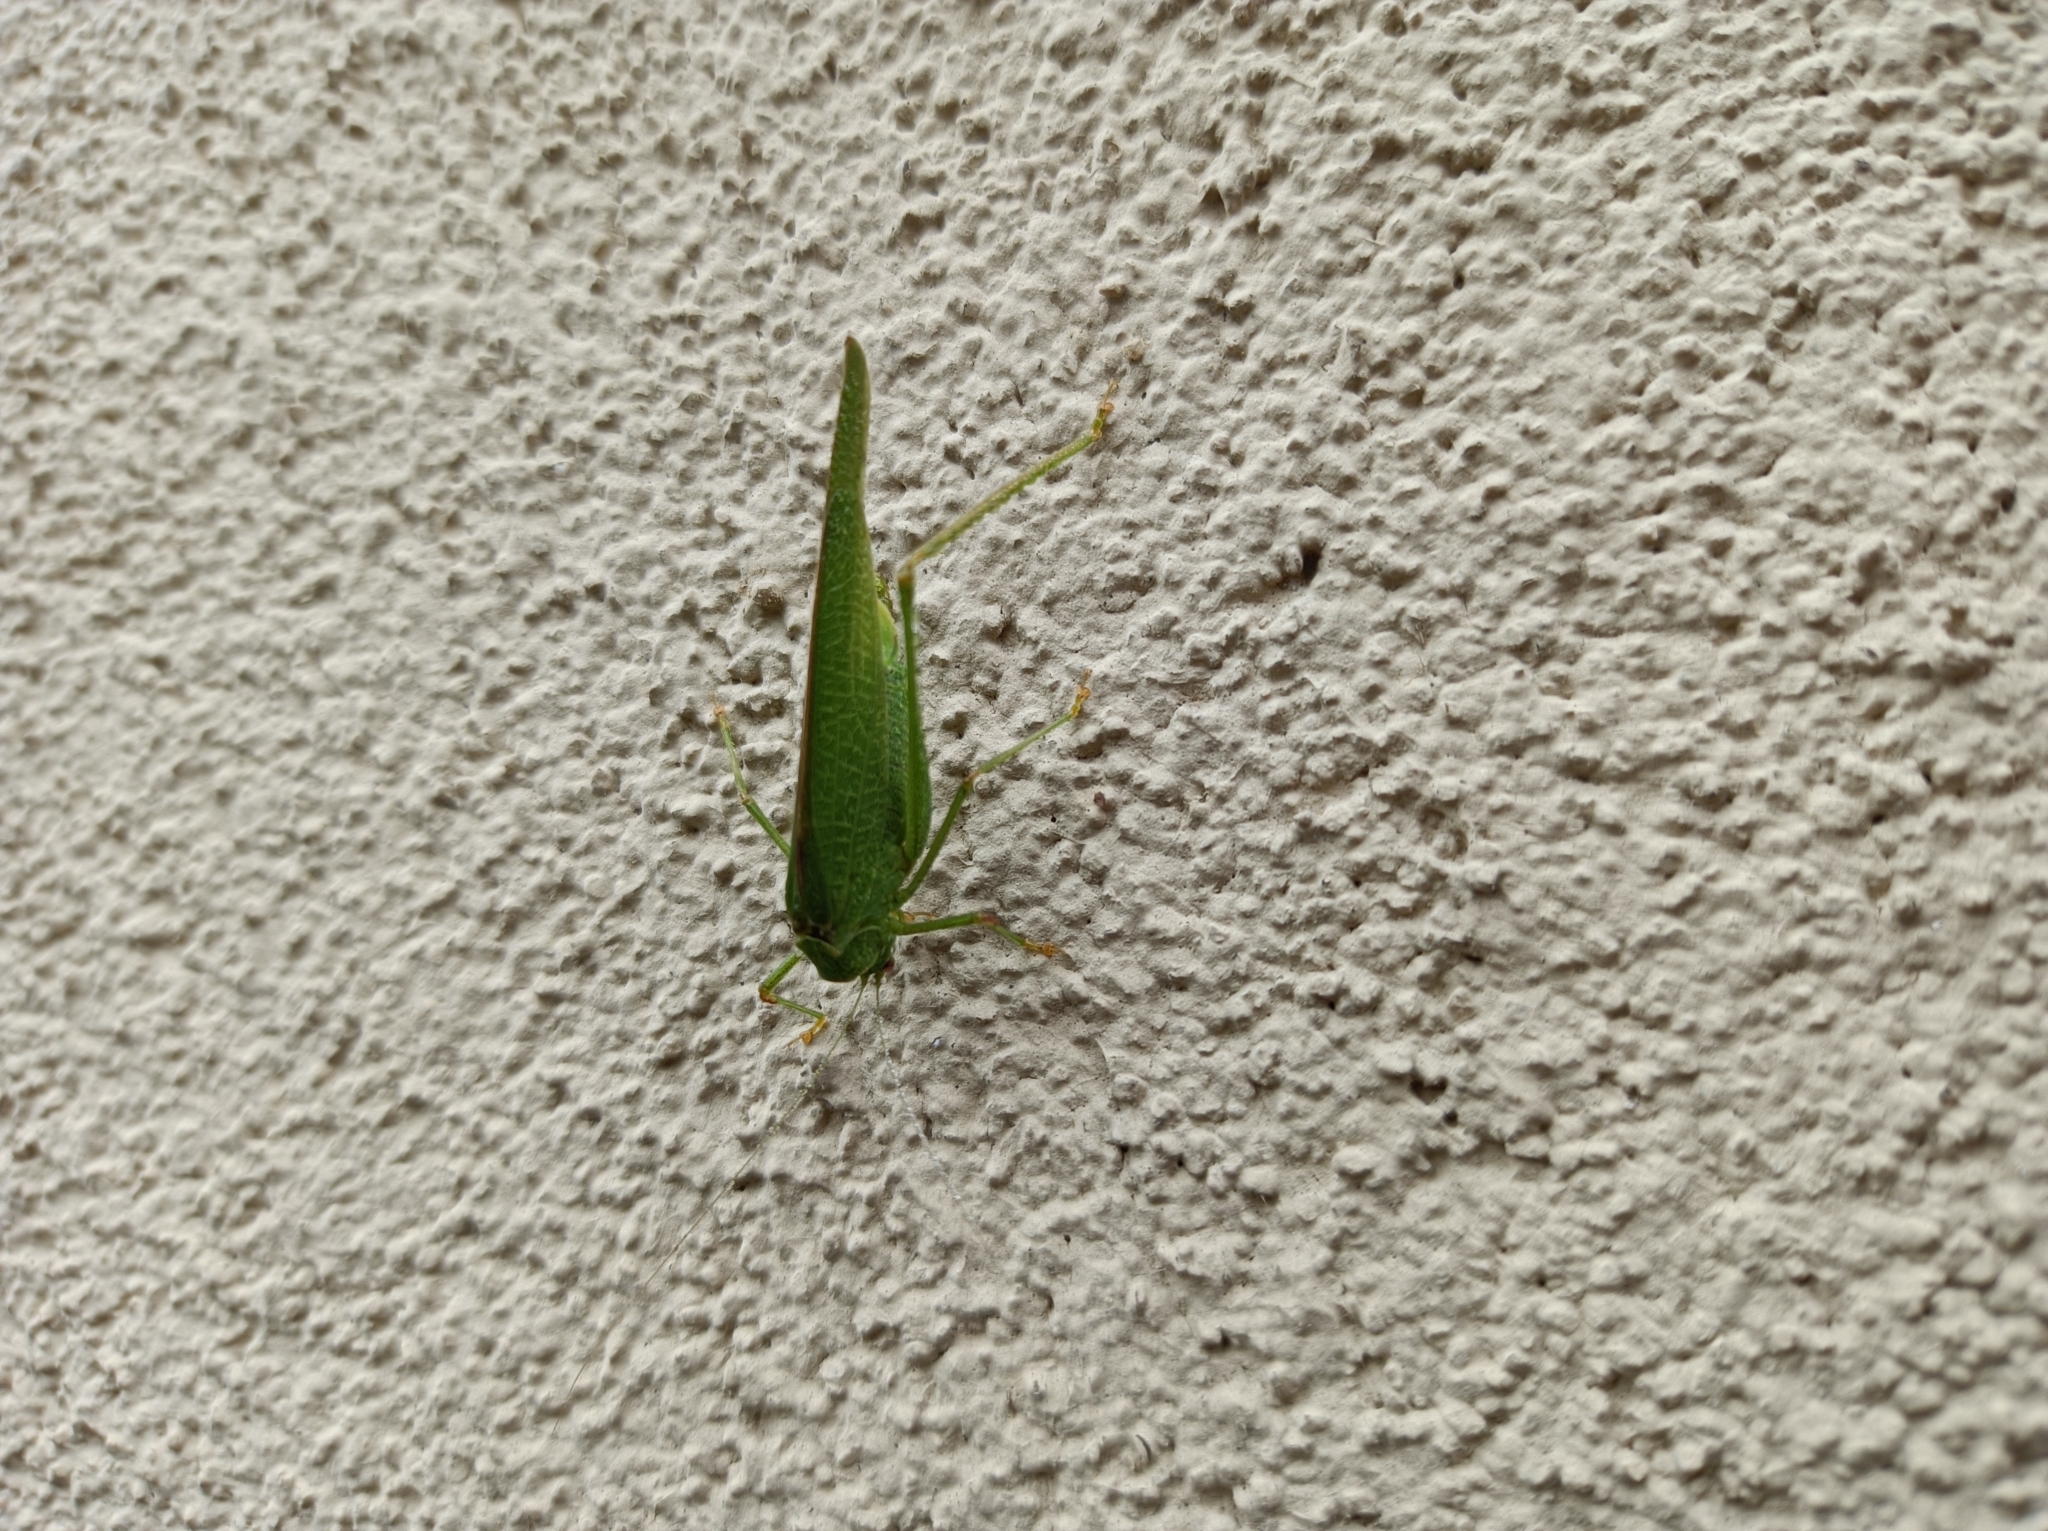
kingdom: Animalia
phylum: Arthropoda
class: Insecta
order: Orthoptera
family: Tettigoniidae
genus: Phaneroptera
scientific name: Phaneroptera nana
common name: Southern sickle bush-cricket
